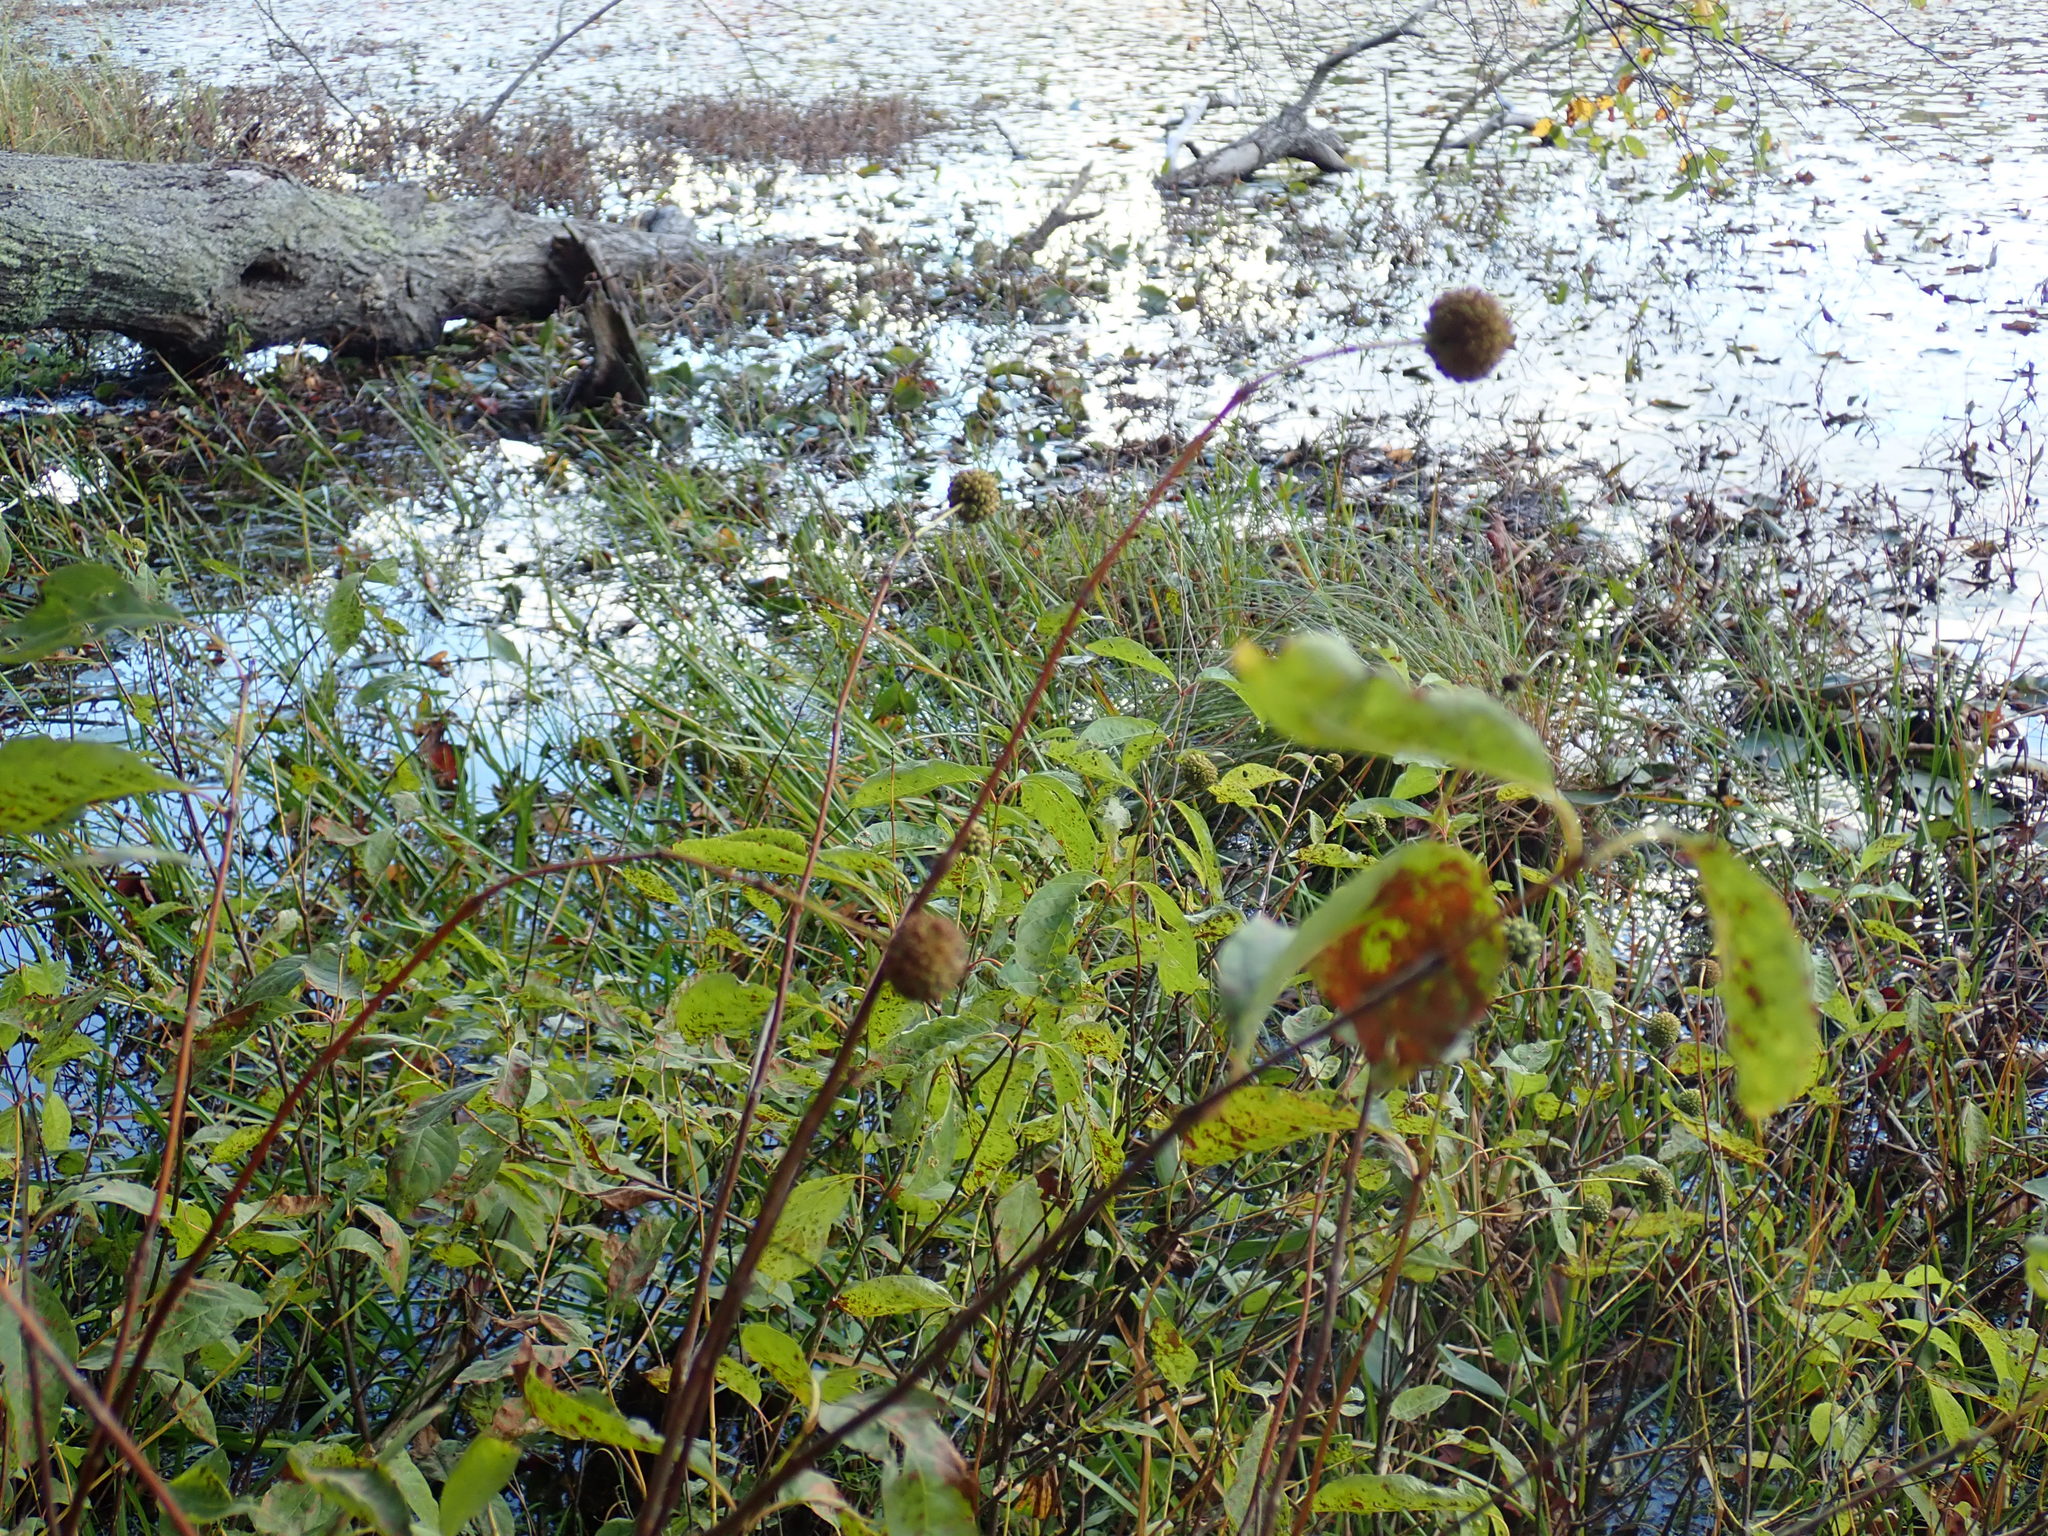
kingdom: Plantae
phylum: Tracheophyta
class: Magnoliopsida
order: Gentianales
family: Rubiaceae
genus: Cephalanthus
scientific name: Cephalanthus occidentalis
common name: Button-willow
